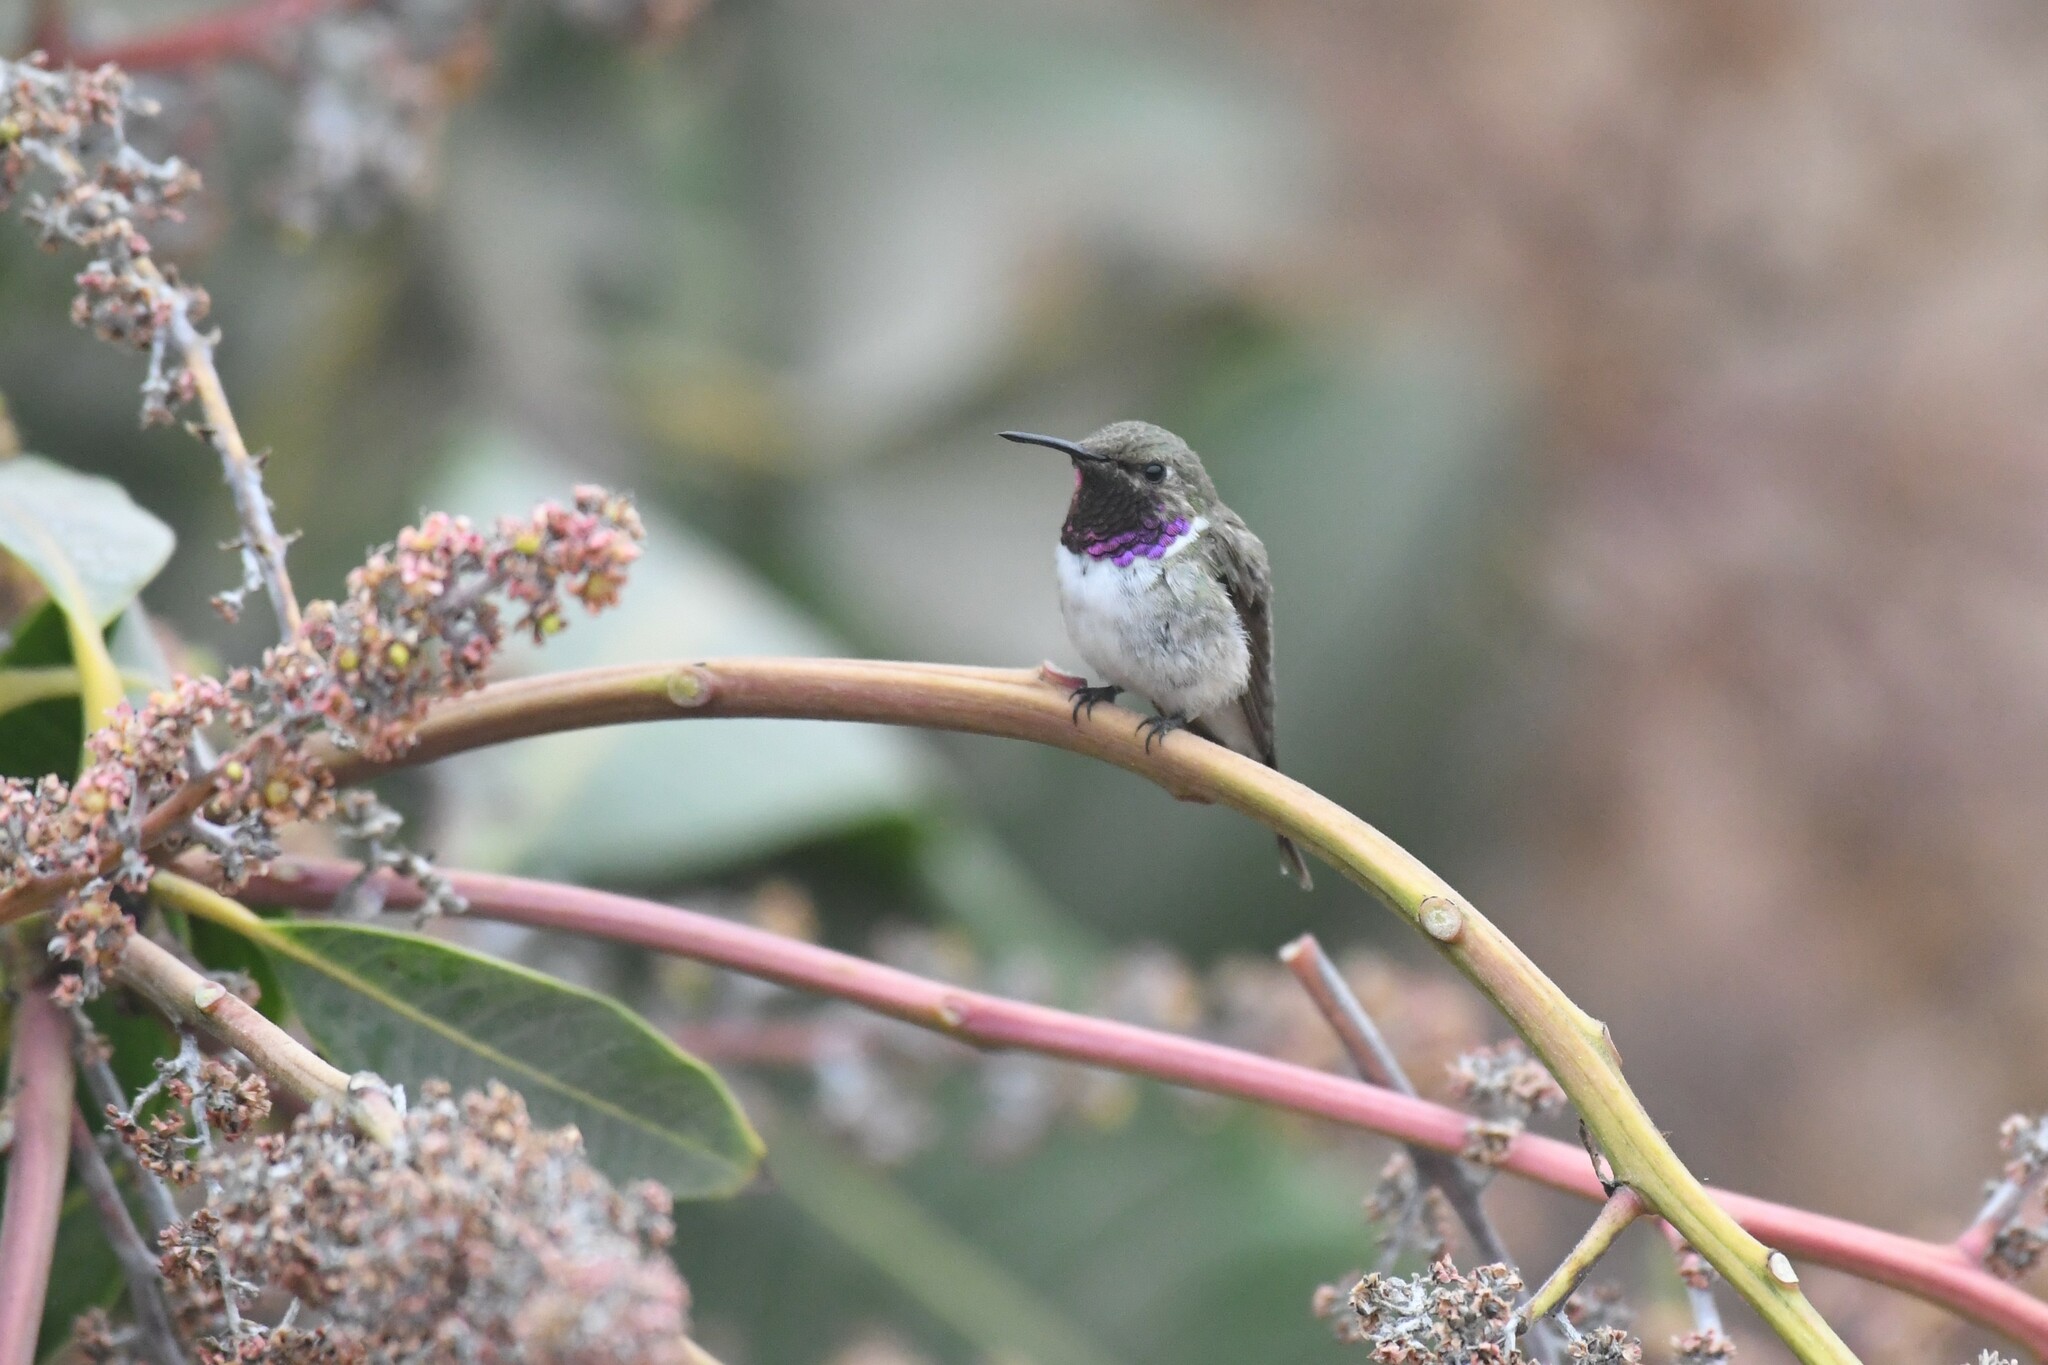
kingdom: Animalia
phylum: Chordata
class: Aves
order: Apodiformes
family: Trochilidae
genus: Eulidia
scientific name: Eulidia yarrellii
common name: Chilean woodstar
